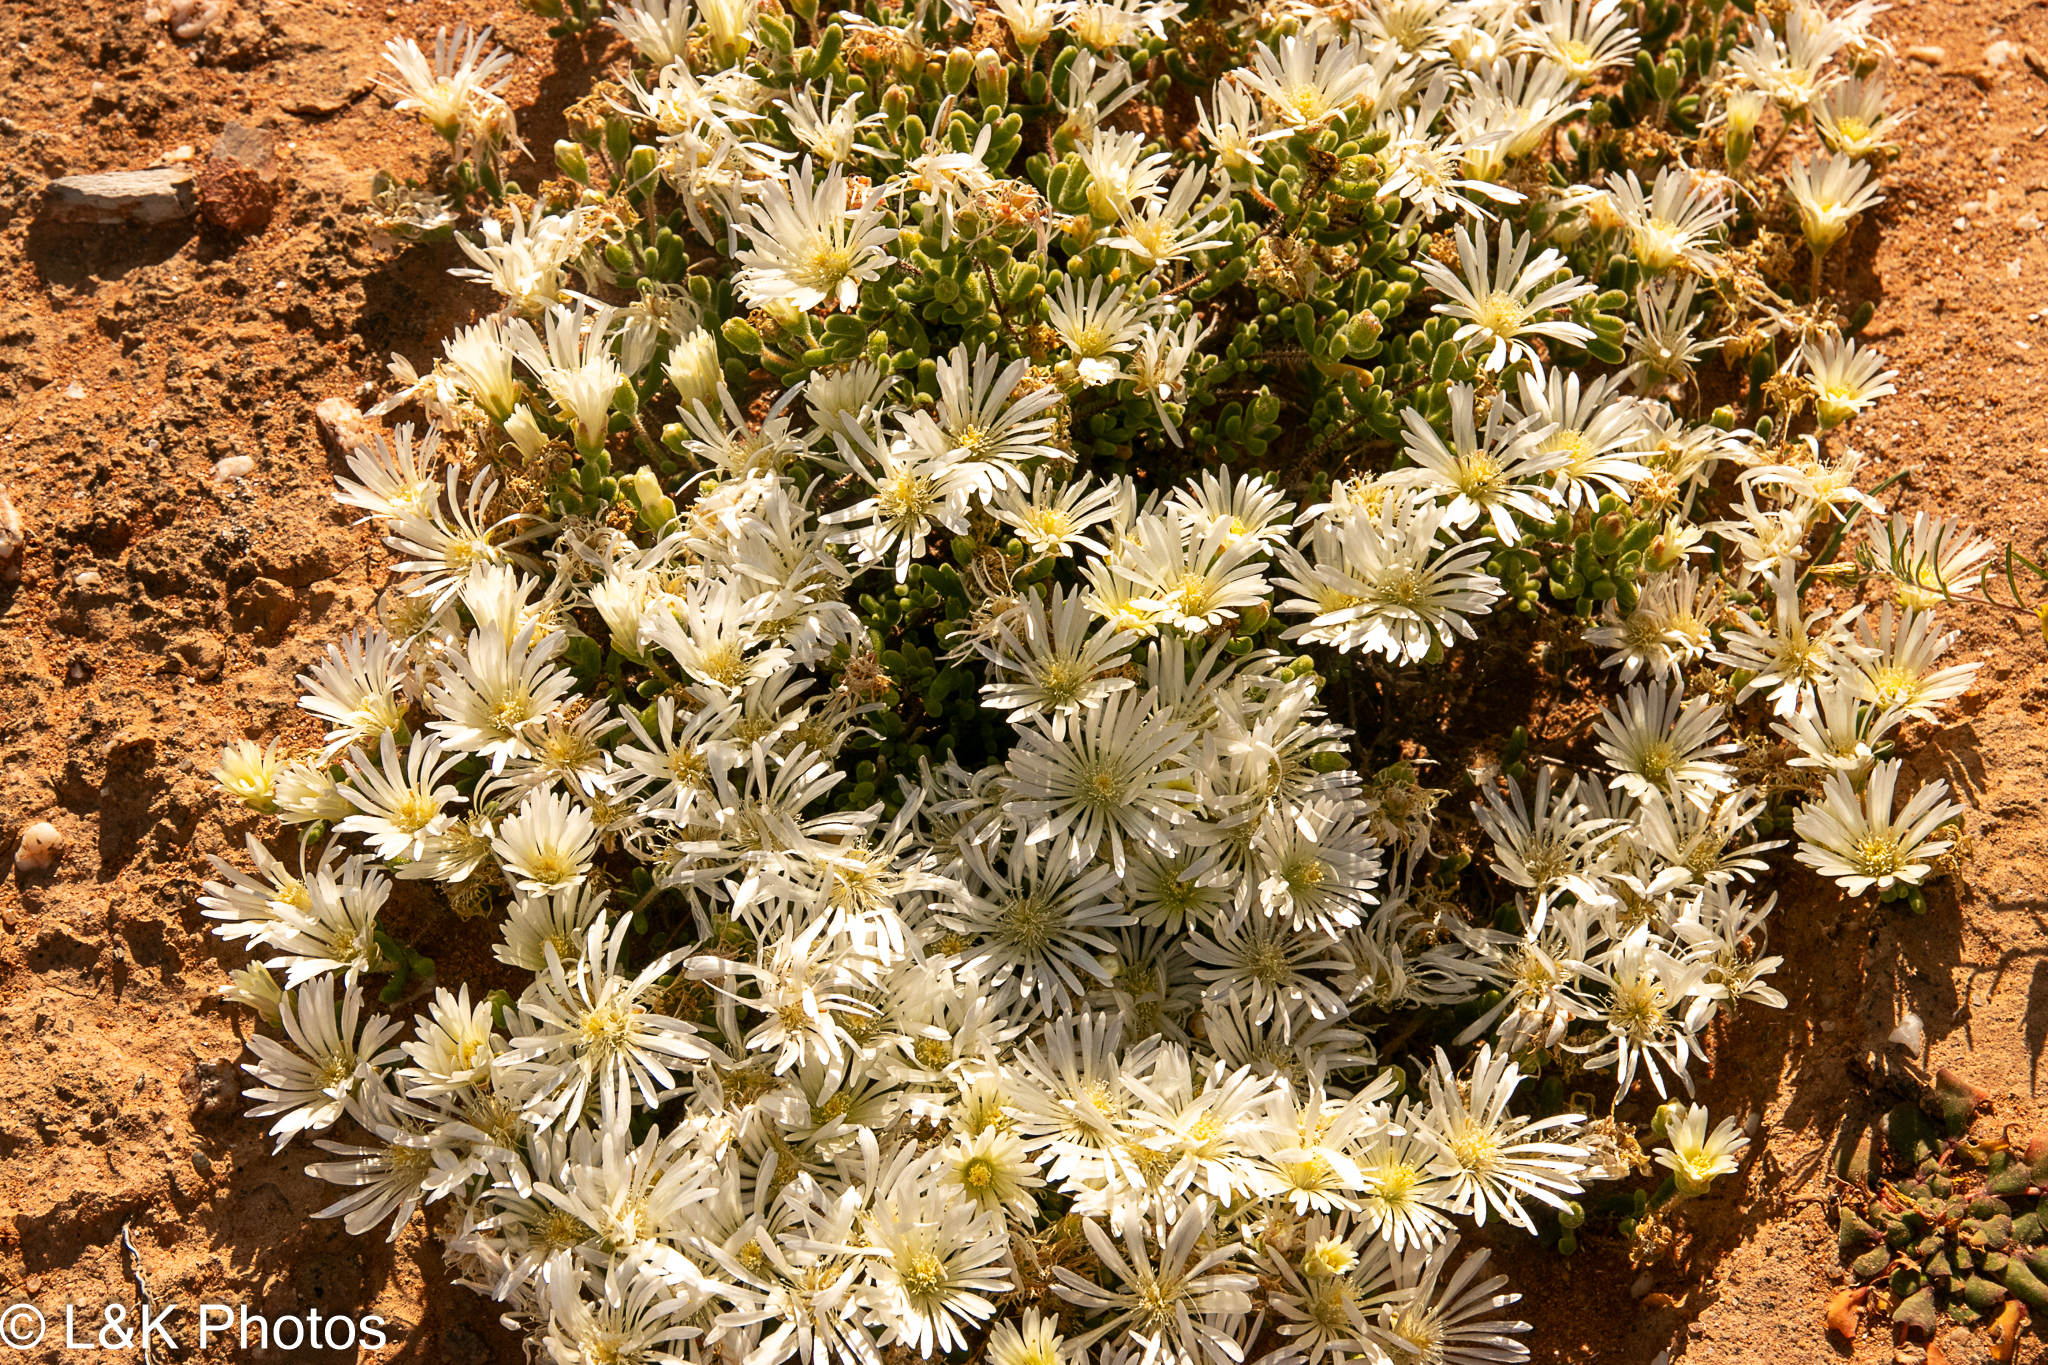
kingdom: Plantae
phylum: Tracheophyta
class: Magnoliopsida
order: Caryophyllales
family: Aizoaceae
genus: Drosanthemum
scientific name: Drosanthemum schoenlandianum
